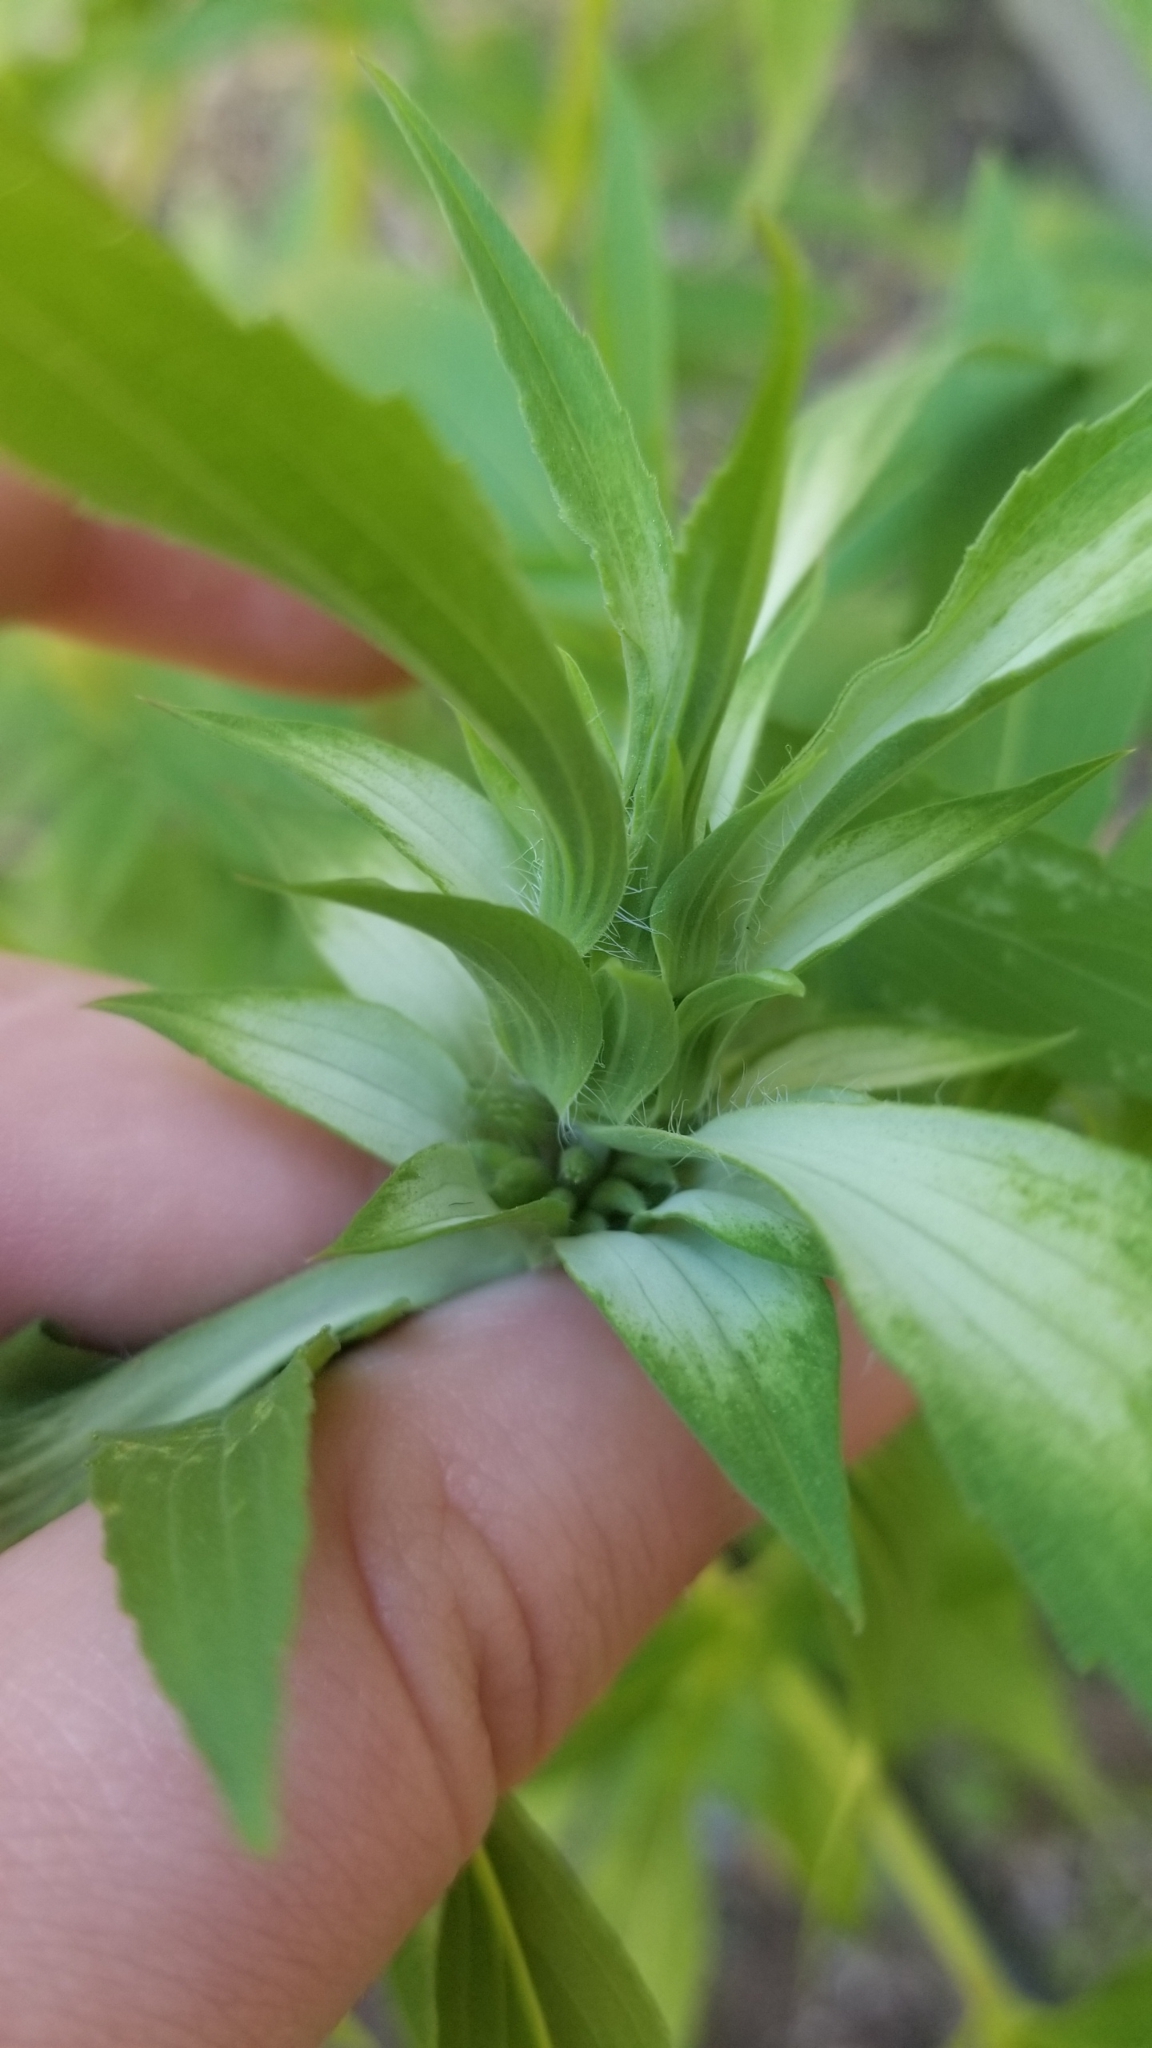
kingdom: Plantae
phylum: Tracheophyta
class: Magnoliopsida
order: Lamiales
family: Lamiaceae
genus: Monarda
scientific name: Monarda punctata
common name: Dotted monarda
